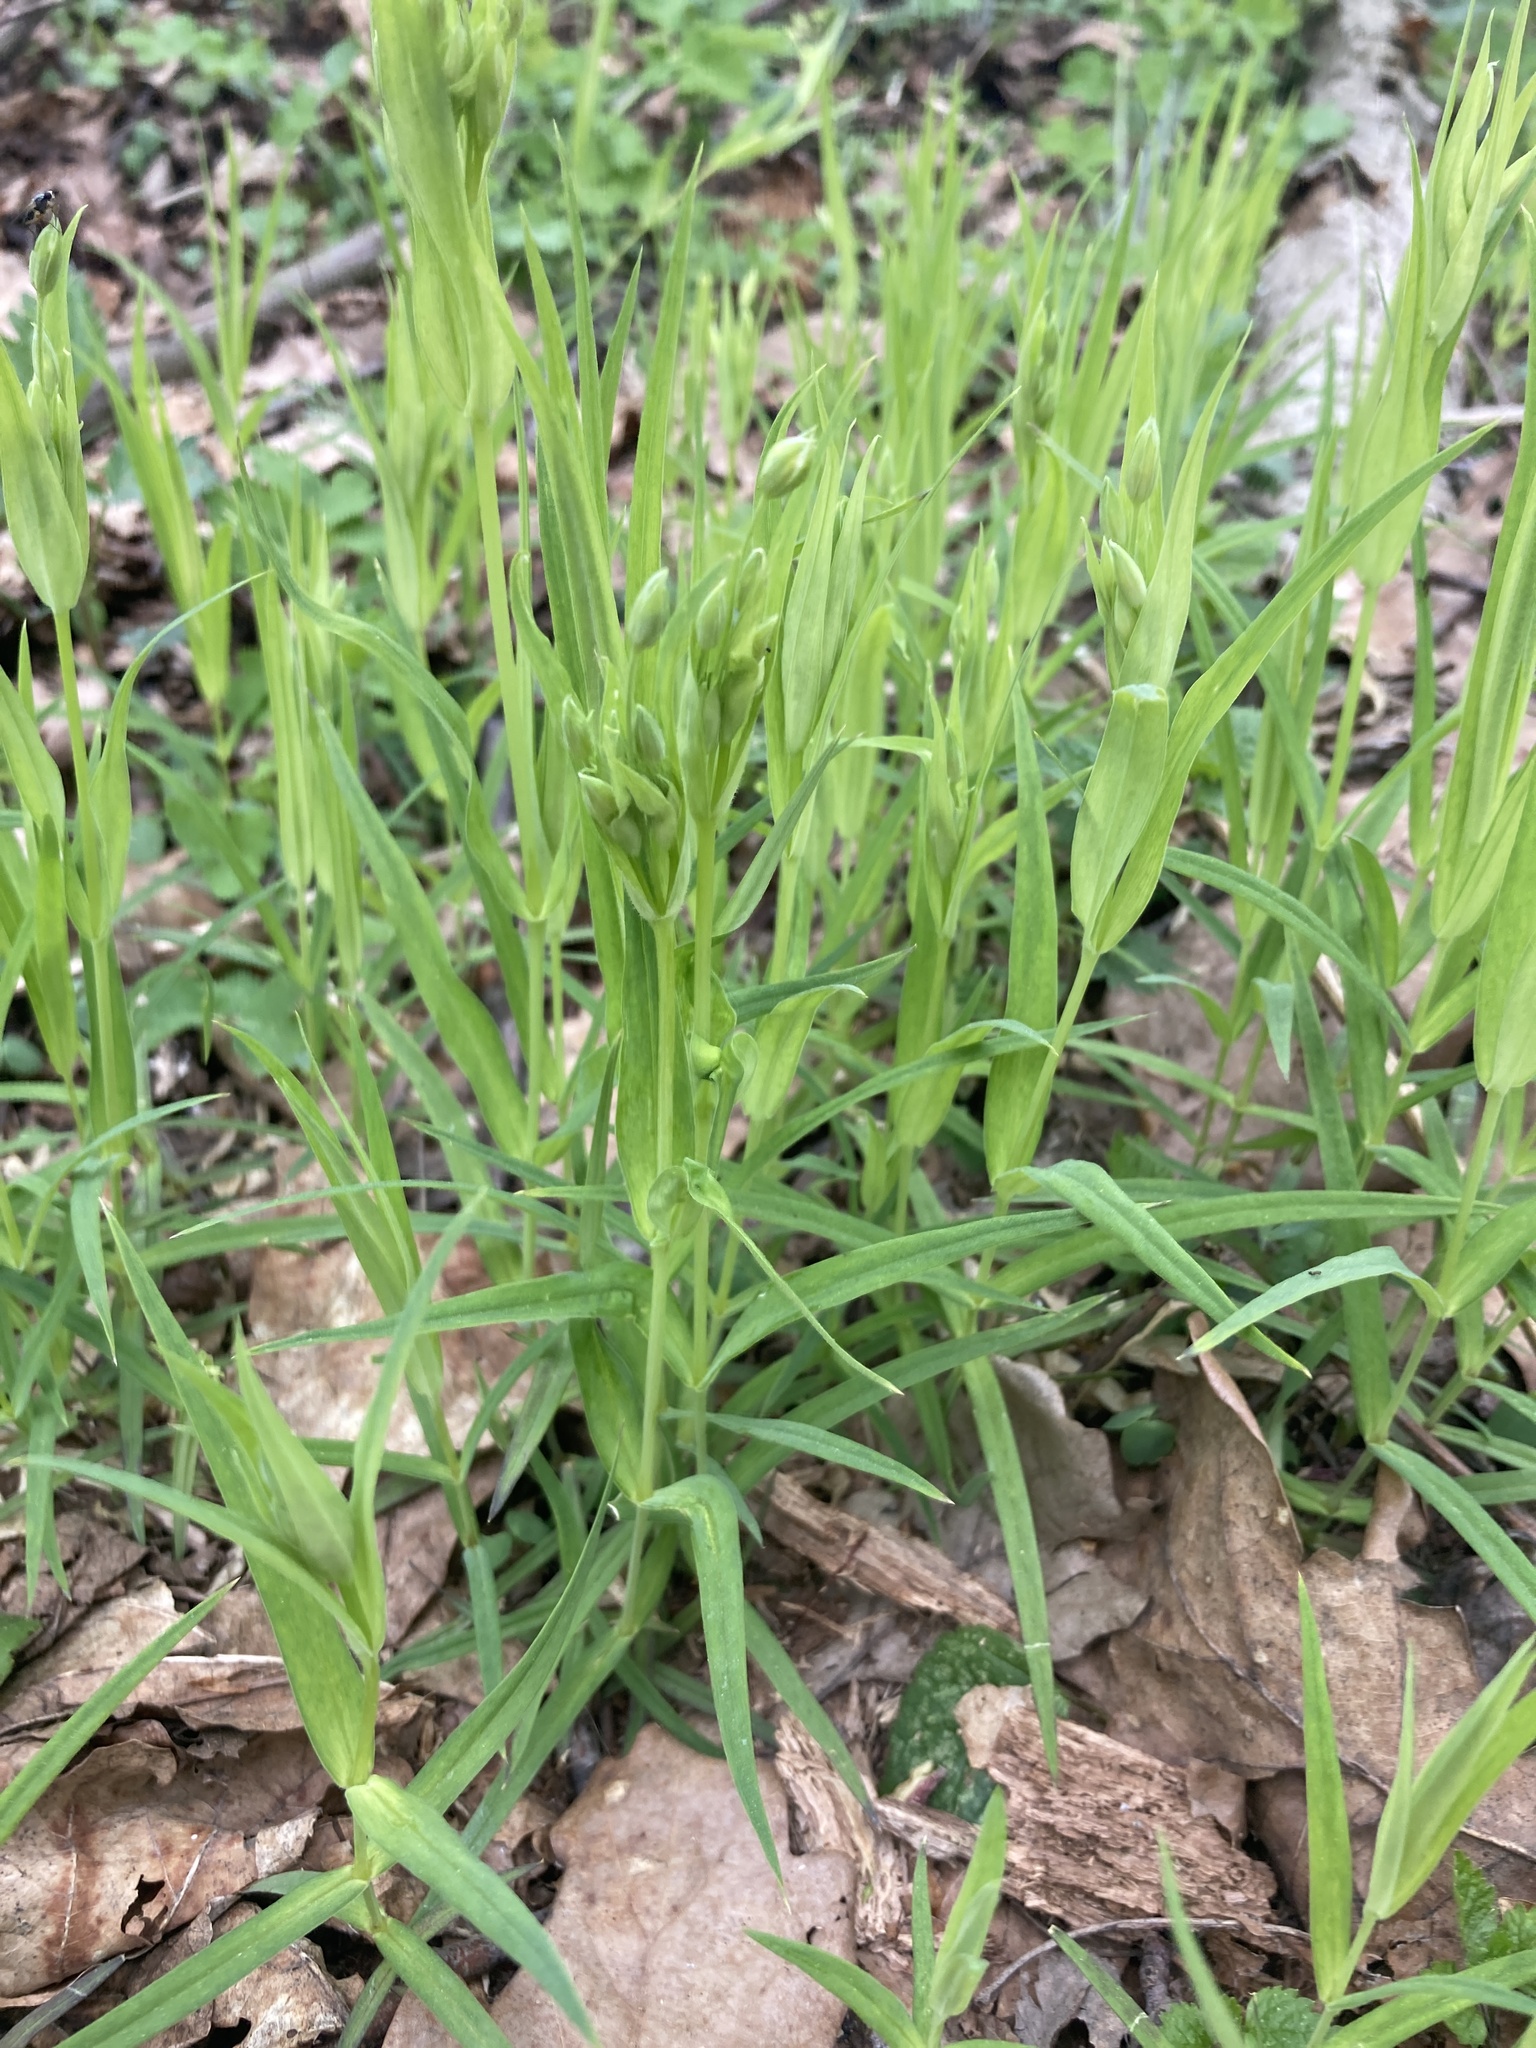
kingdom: Plantae
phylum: Tracheophyta
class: Magnoliopsida
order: Caryophyllales
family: Caryophyllaceae
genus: Rabelera
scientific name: Rabelera holostea
